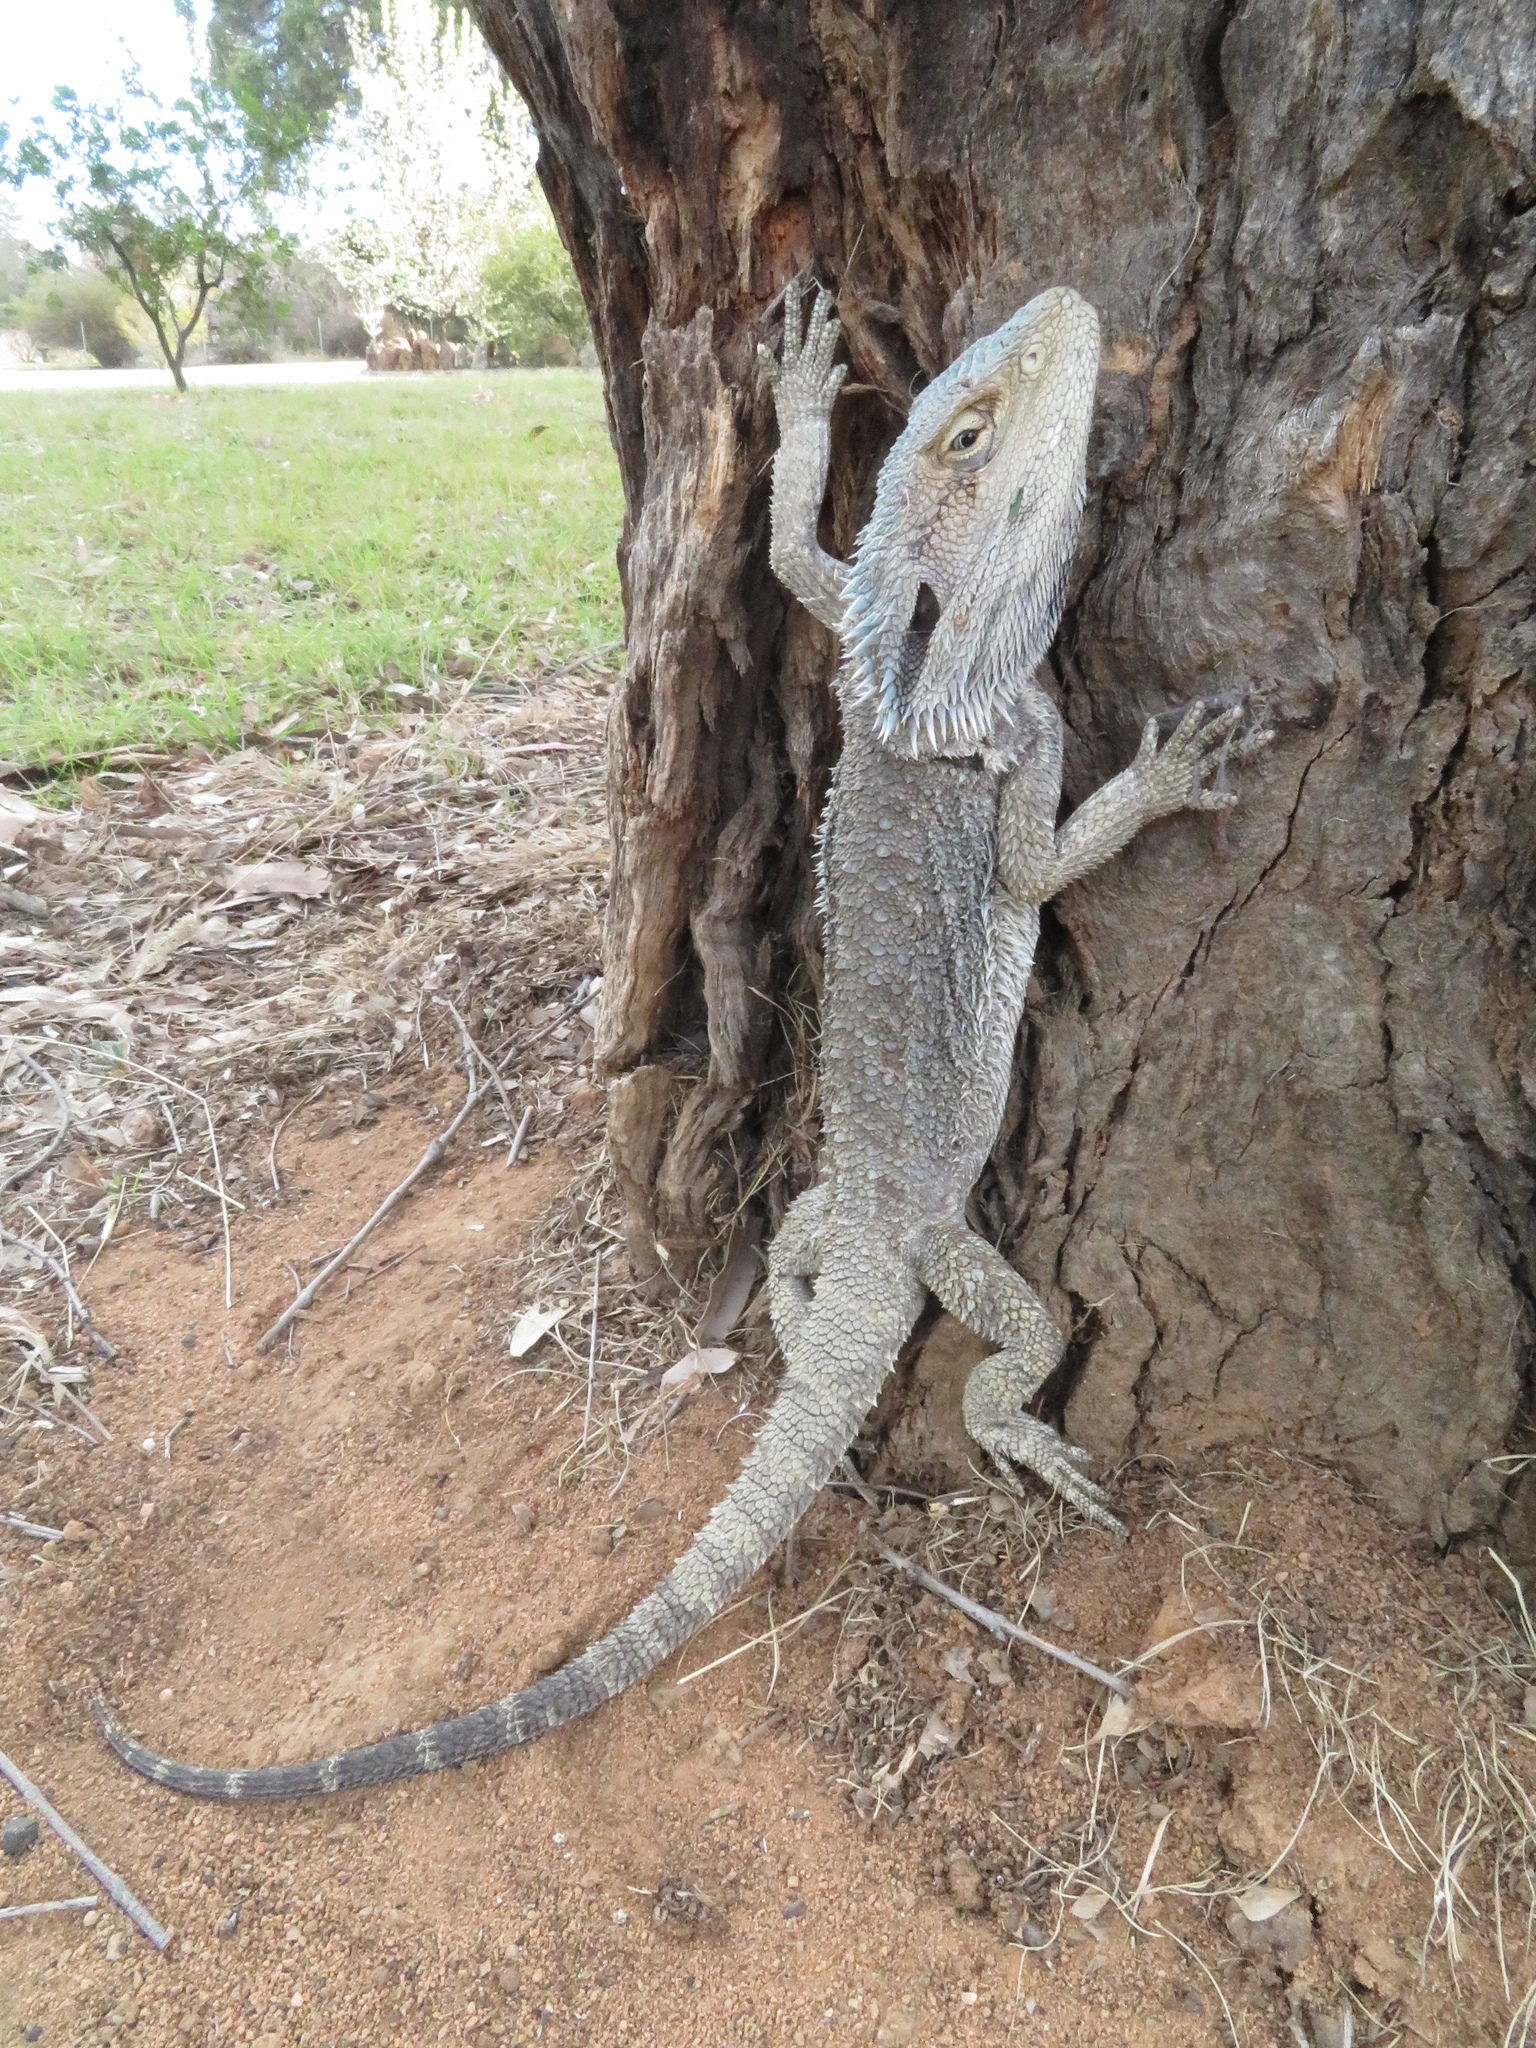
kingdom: Animalia
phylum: Chordata
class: Squamata
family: Agamidae
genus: Pogona
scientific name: Pogona barbata
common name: Bearded dragon
